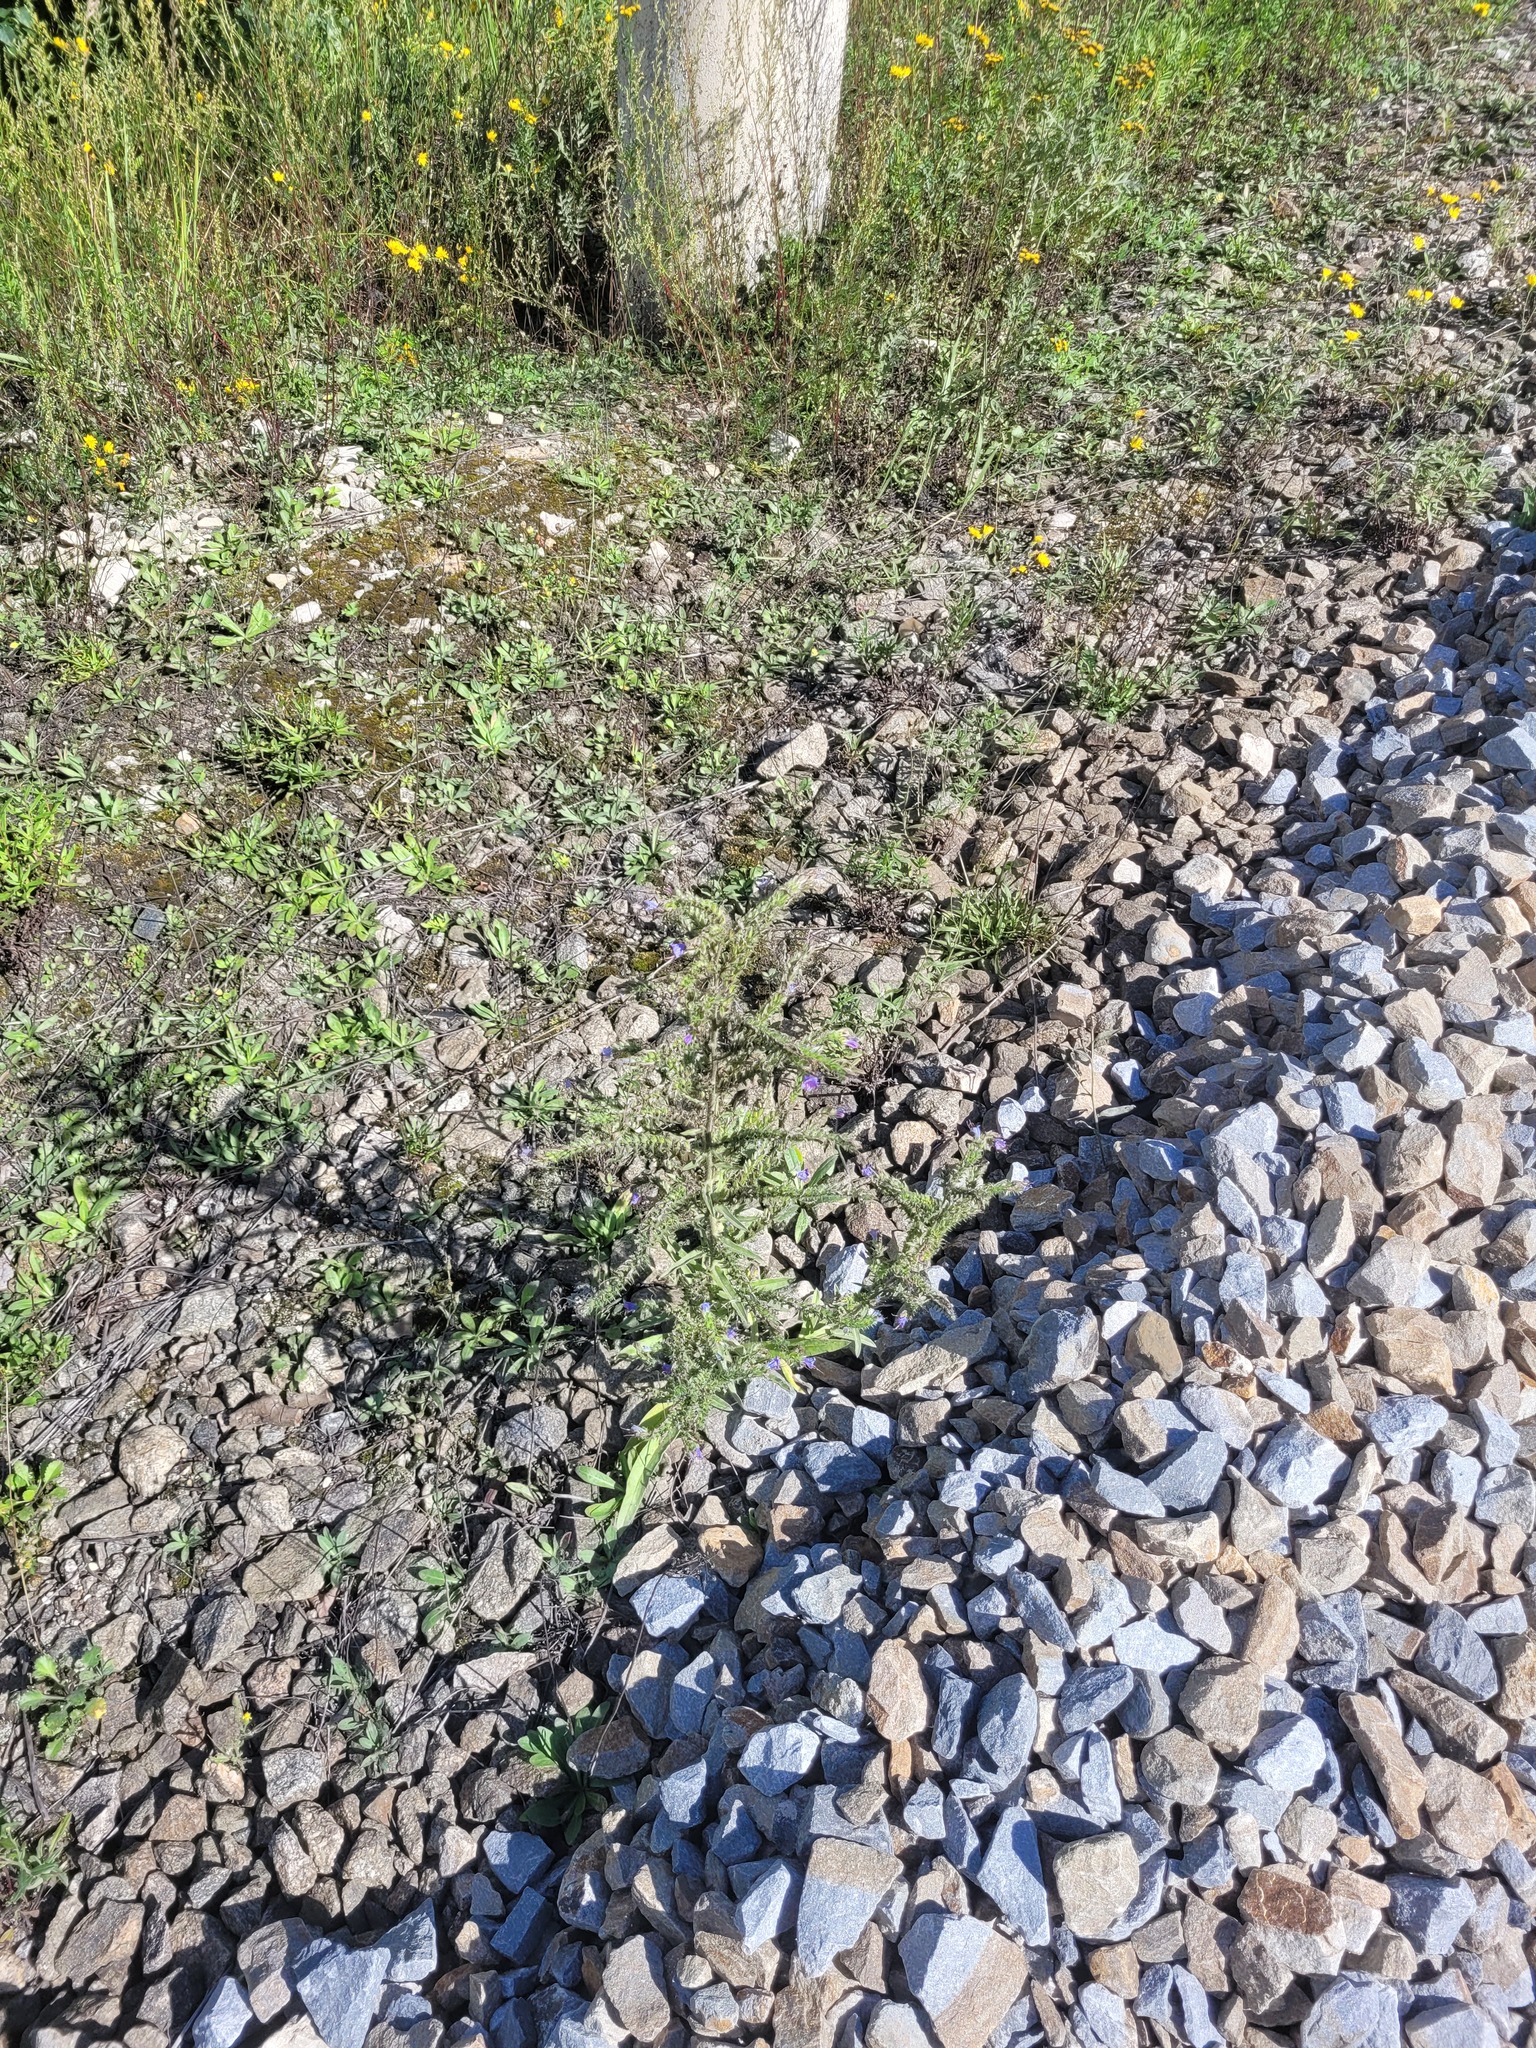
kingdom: Plantae
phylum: Tracheophyta
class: Magnoliopsida
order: Boraginales
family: Boraginaceae
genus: Echium
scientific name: Echium vulgare
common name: Common viper's bugloss
